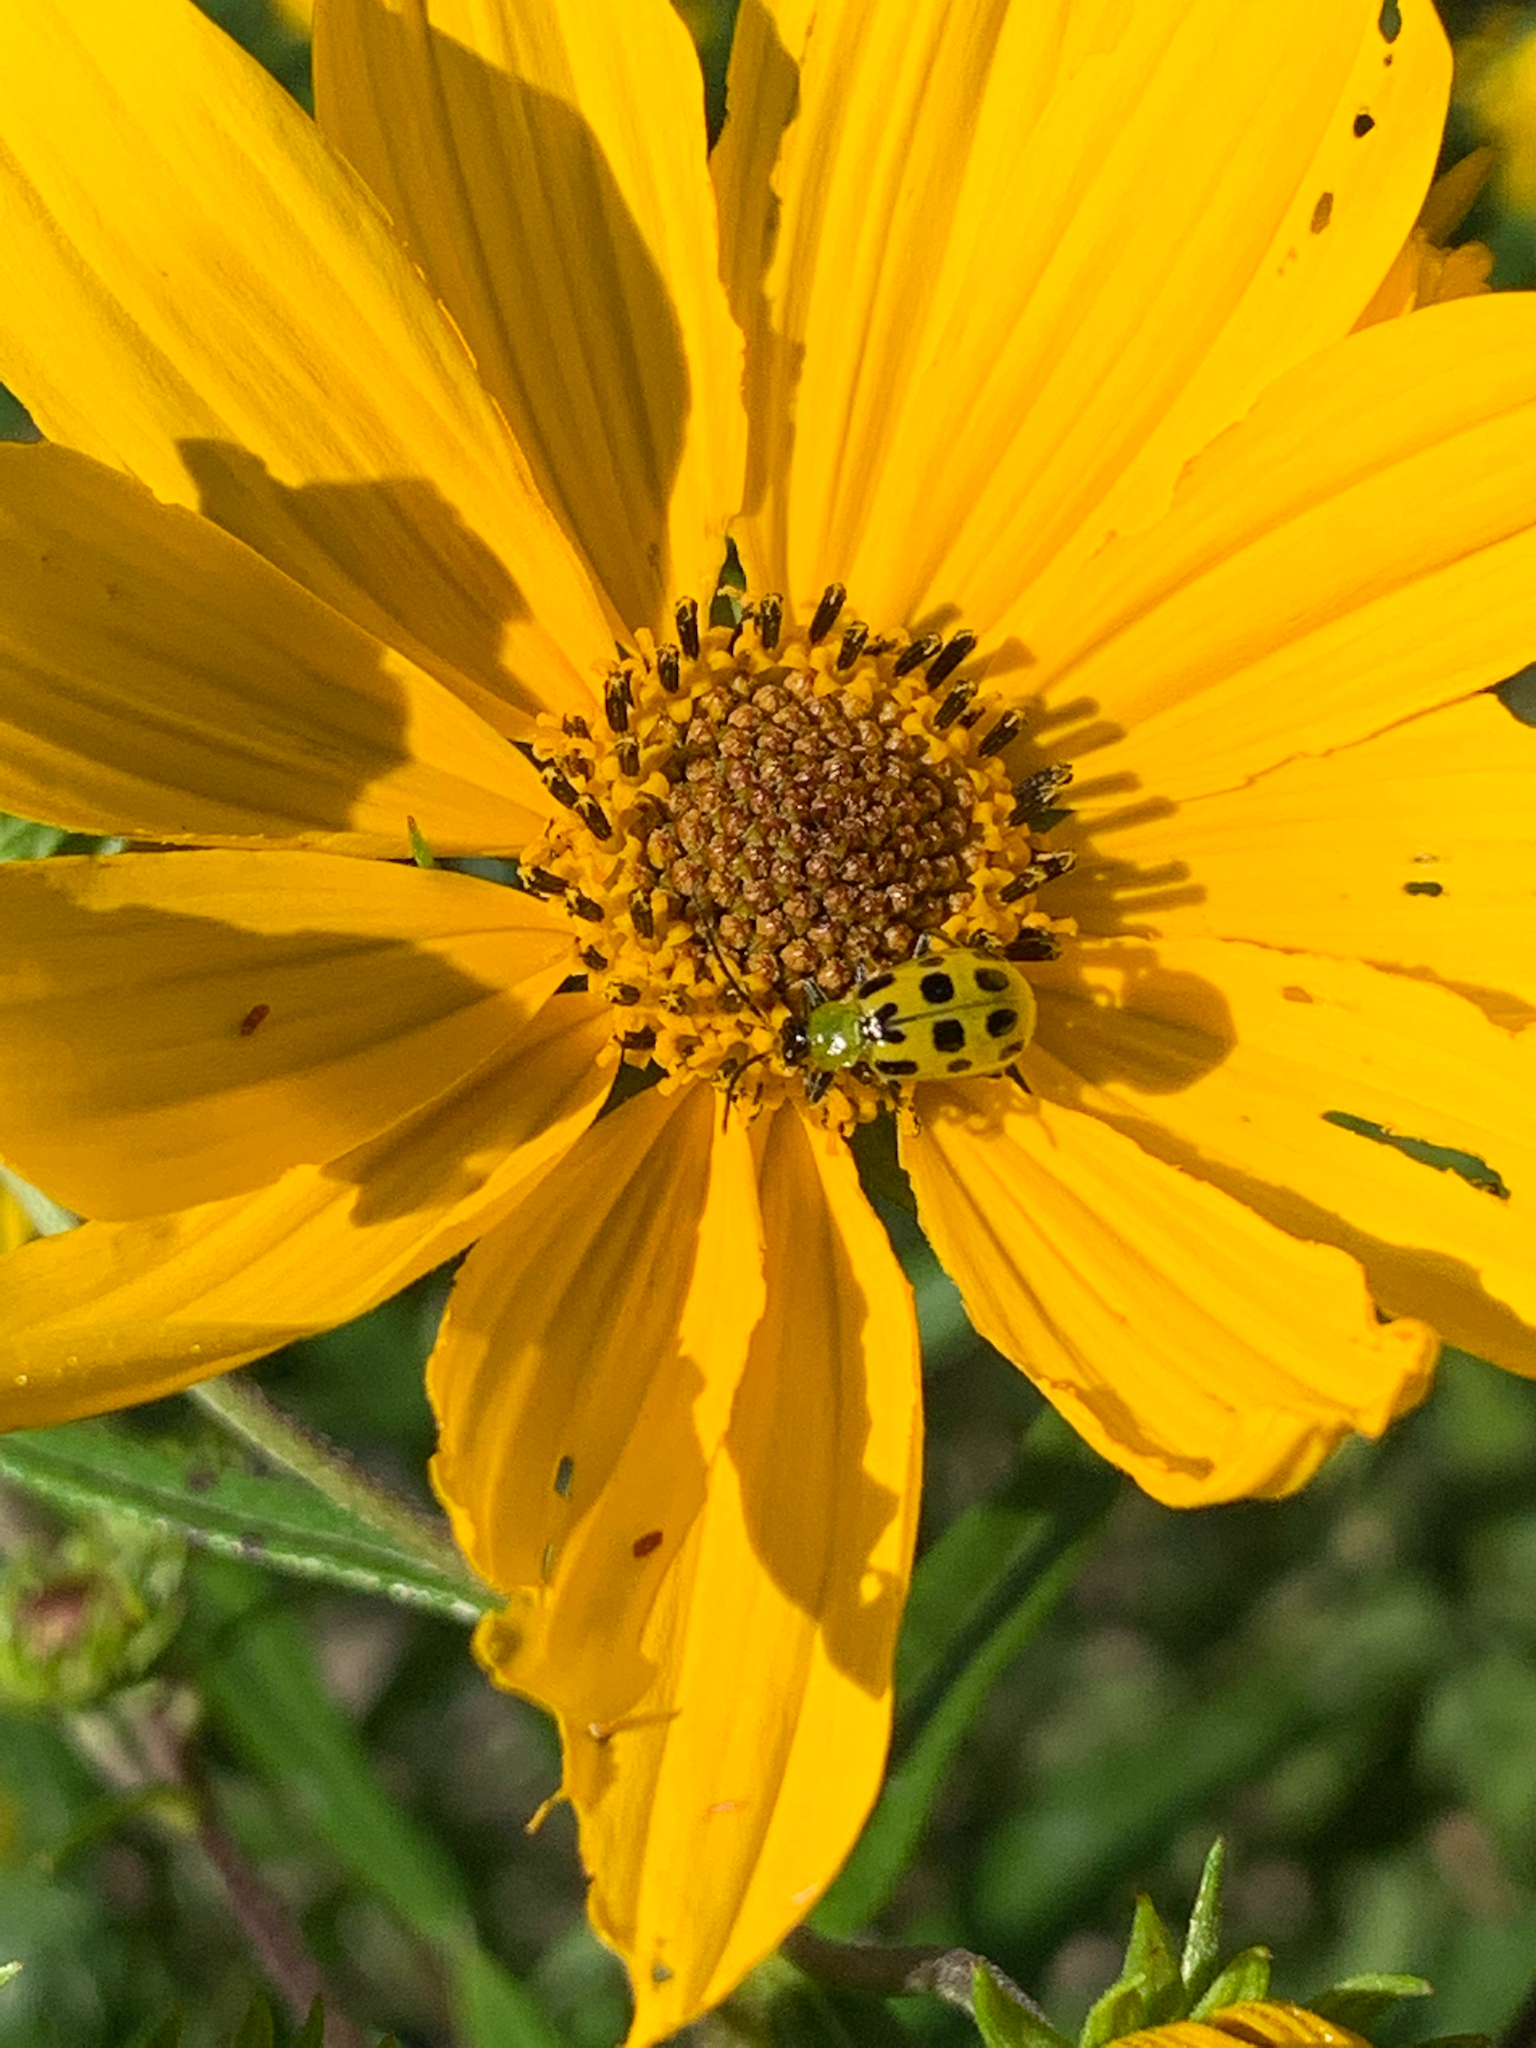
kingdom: Animalia
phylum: Arthropoda
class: Insecta
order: Coleoptera
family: Chrysomelidae
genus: Diabrotica
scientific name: Diabrotica undecimpunctata
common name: Spotted cucumber beetle
